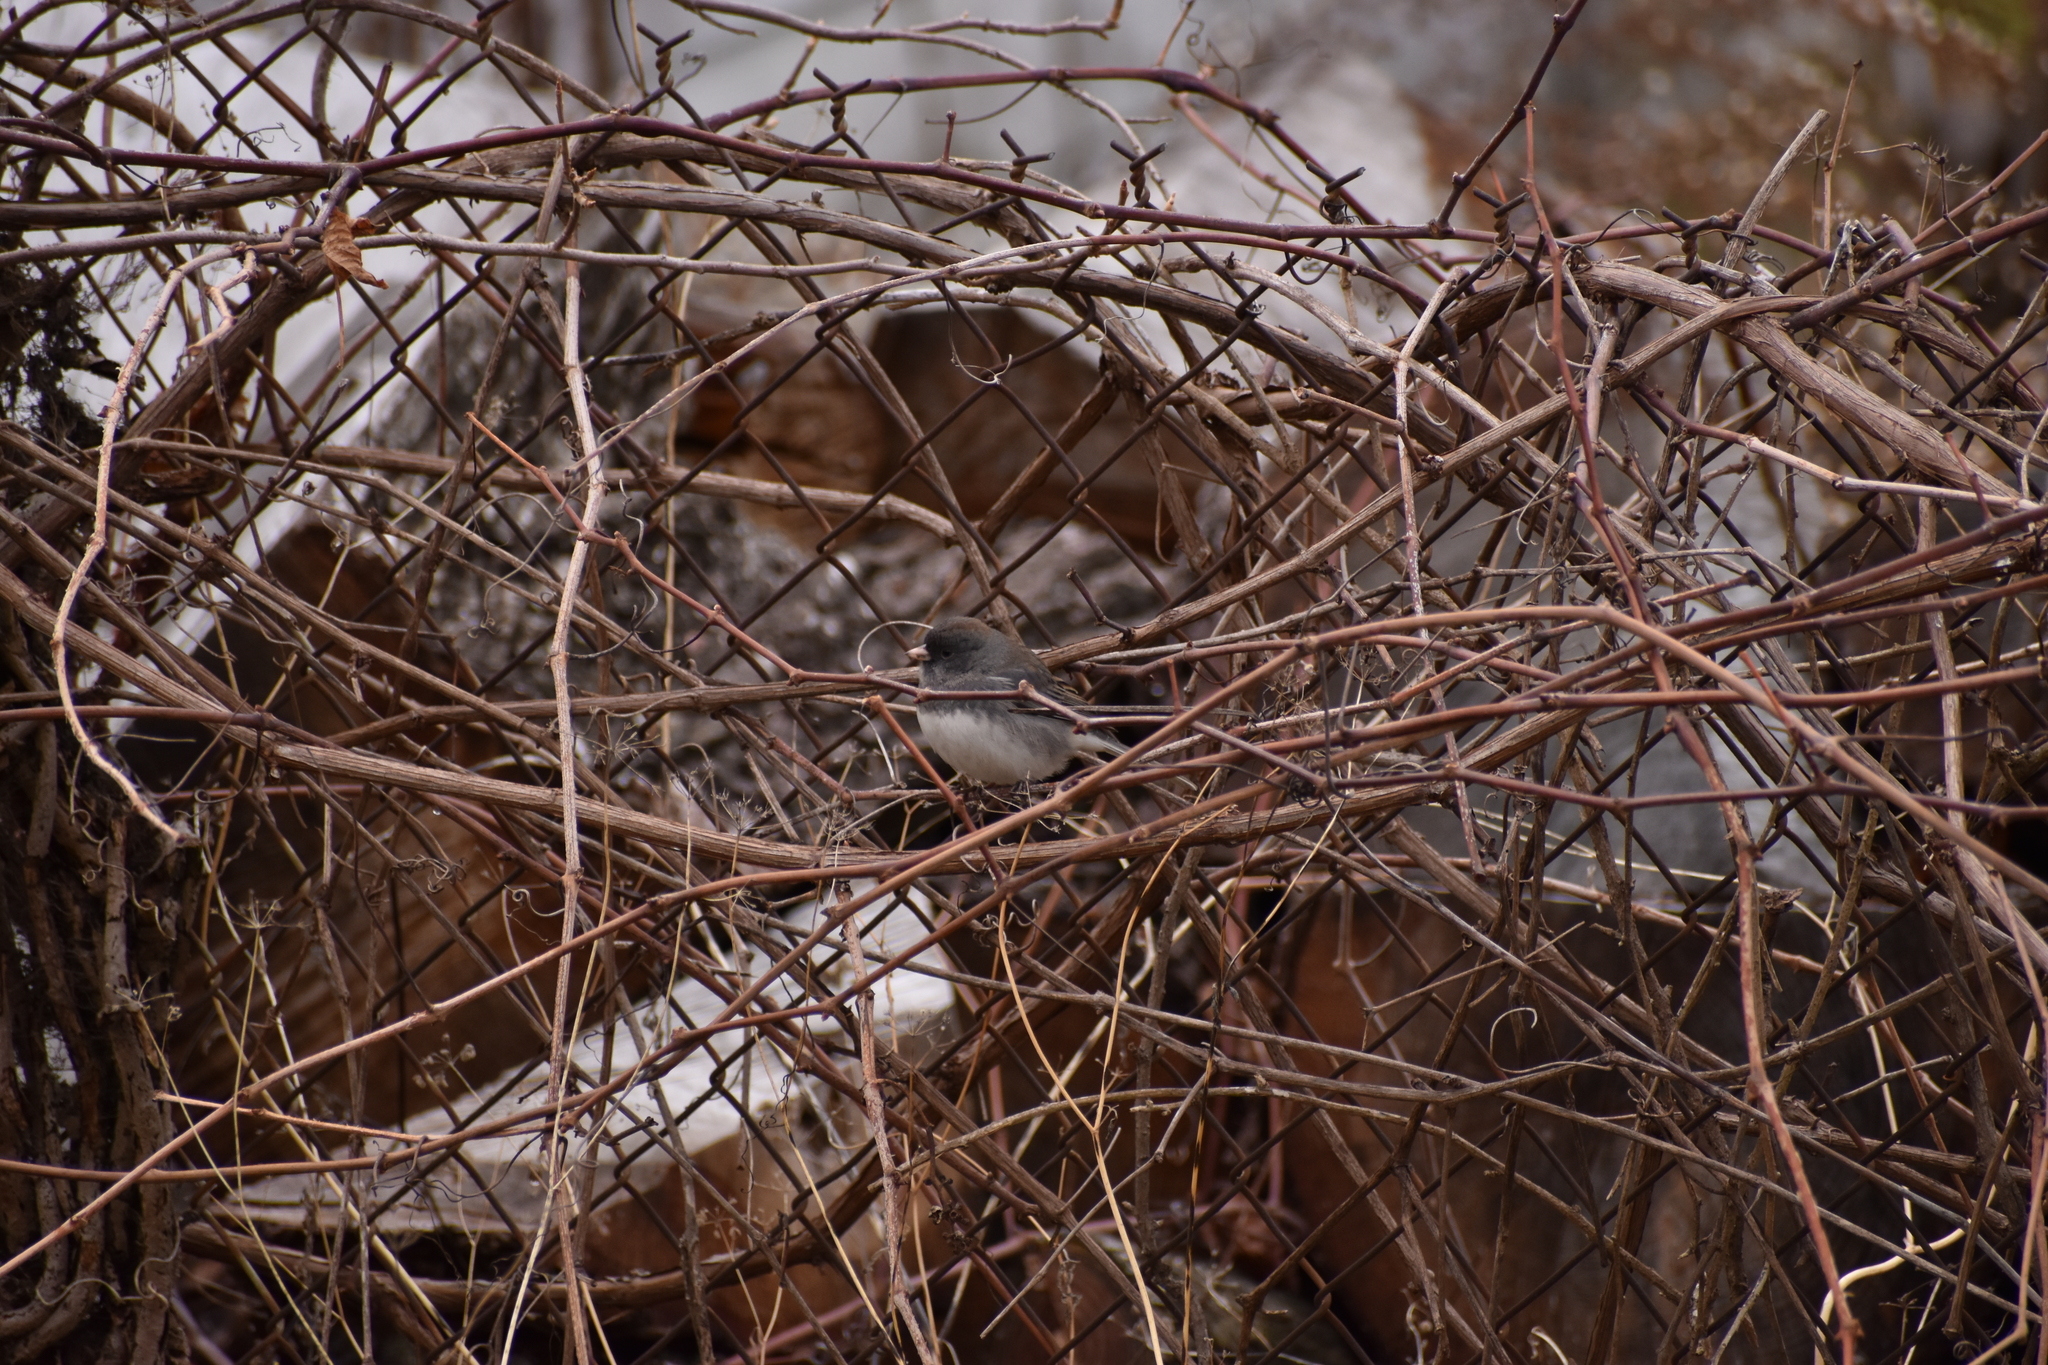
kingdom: Animalia
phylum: Chordata
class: Aves
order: Passeriformes
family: Passerellidae
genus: Junco
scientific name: Junco hyemalis
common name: Dark-eyed junco
